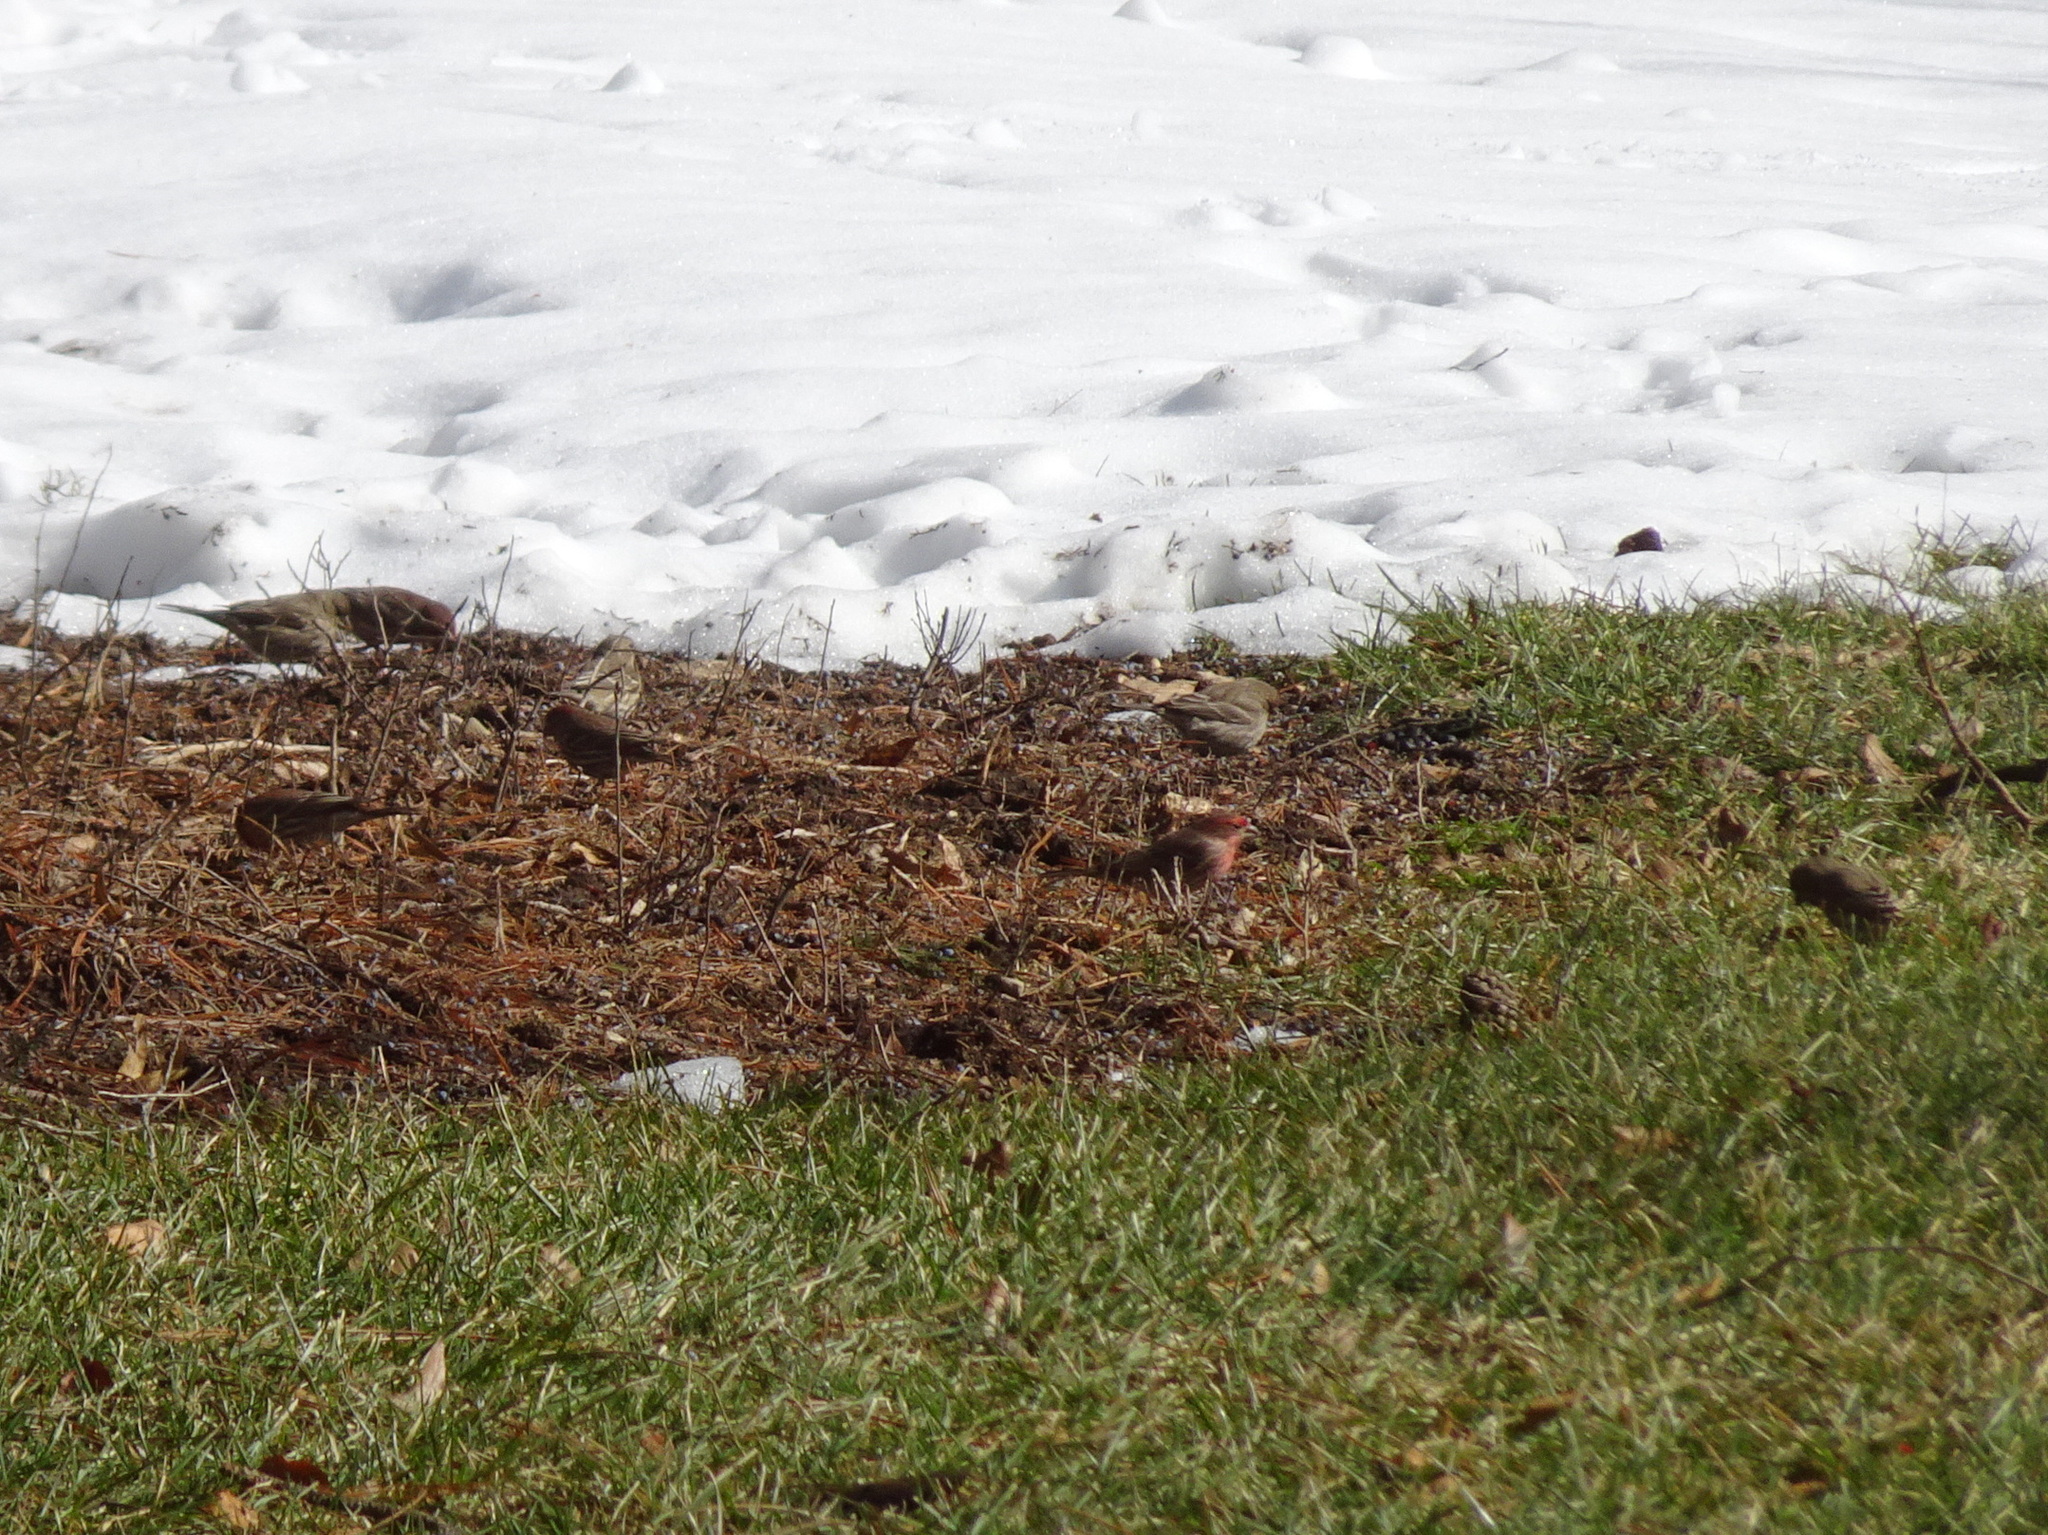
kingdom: Animalia
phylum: Chordata
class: Aves
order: Passeriformes
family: Fringillidae
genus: Haemorhous
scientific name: Haemorhous mexicanus
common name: House finch
